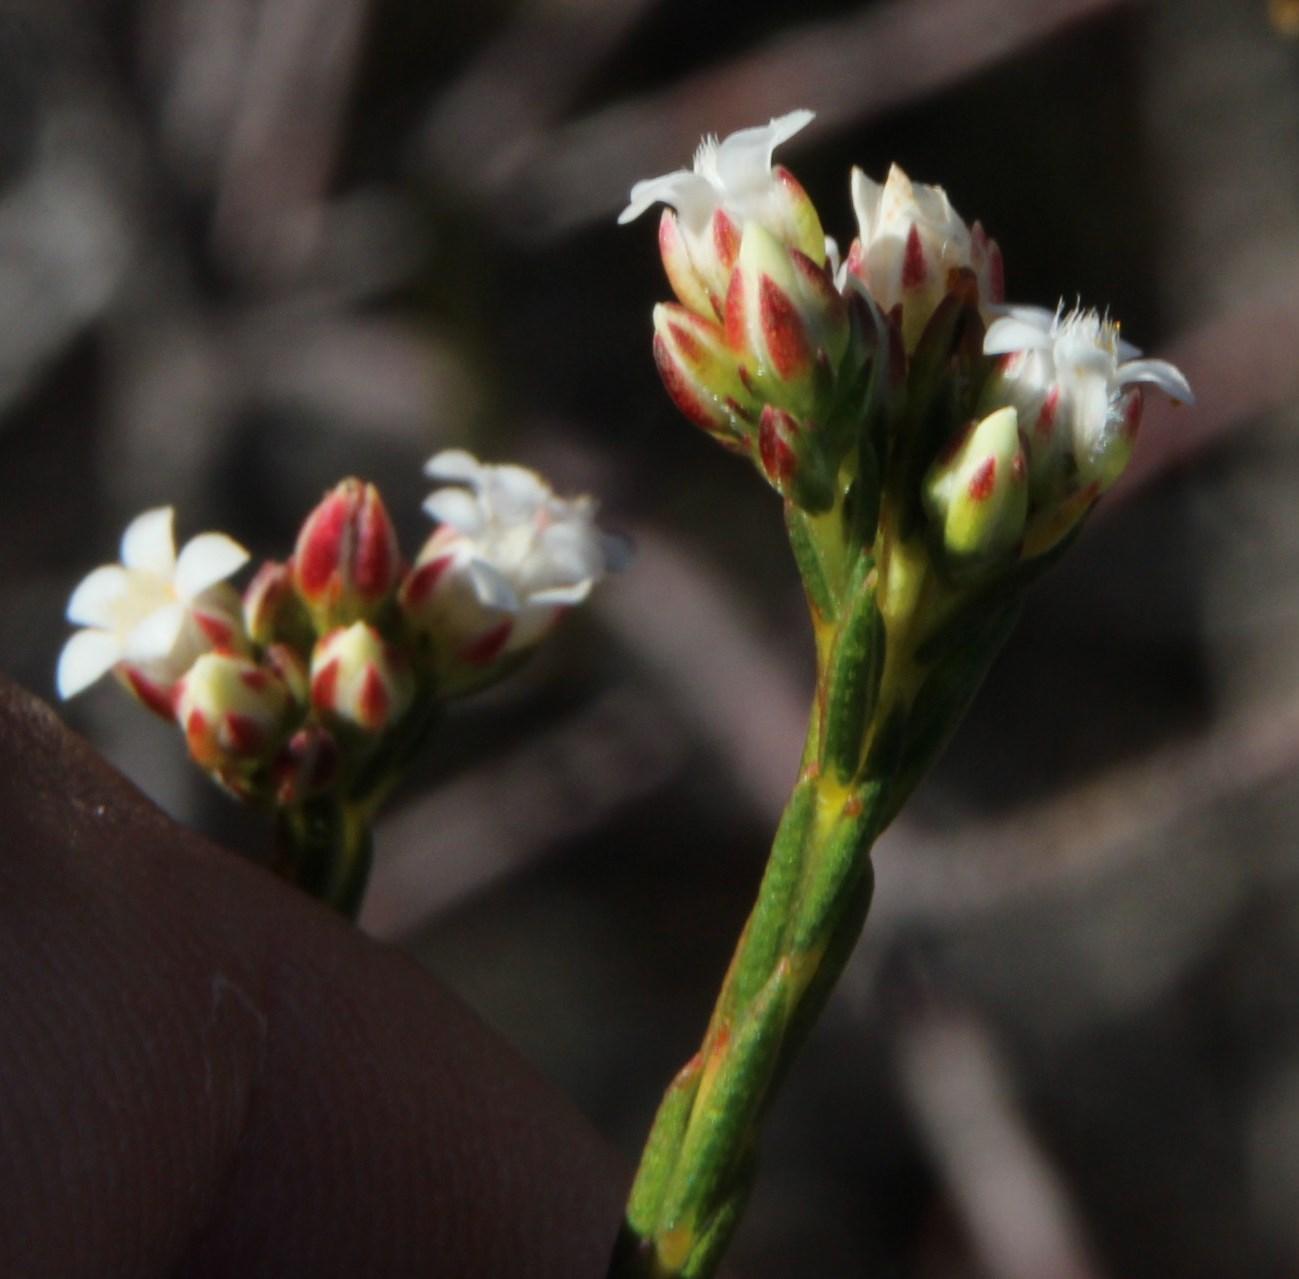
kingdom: Plantae
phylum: Tracheophyta
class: Magnoliopsida
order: Sapindales
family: Rutaceae
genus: Euchaetis
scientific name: Euchaetis elata
